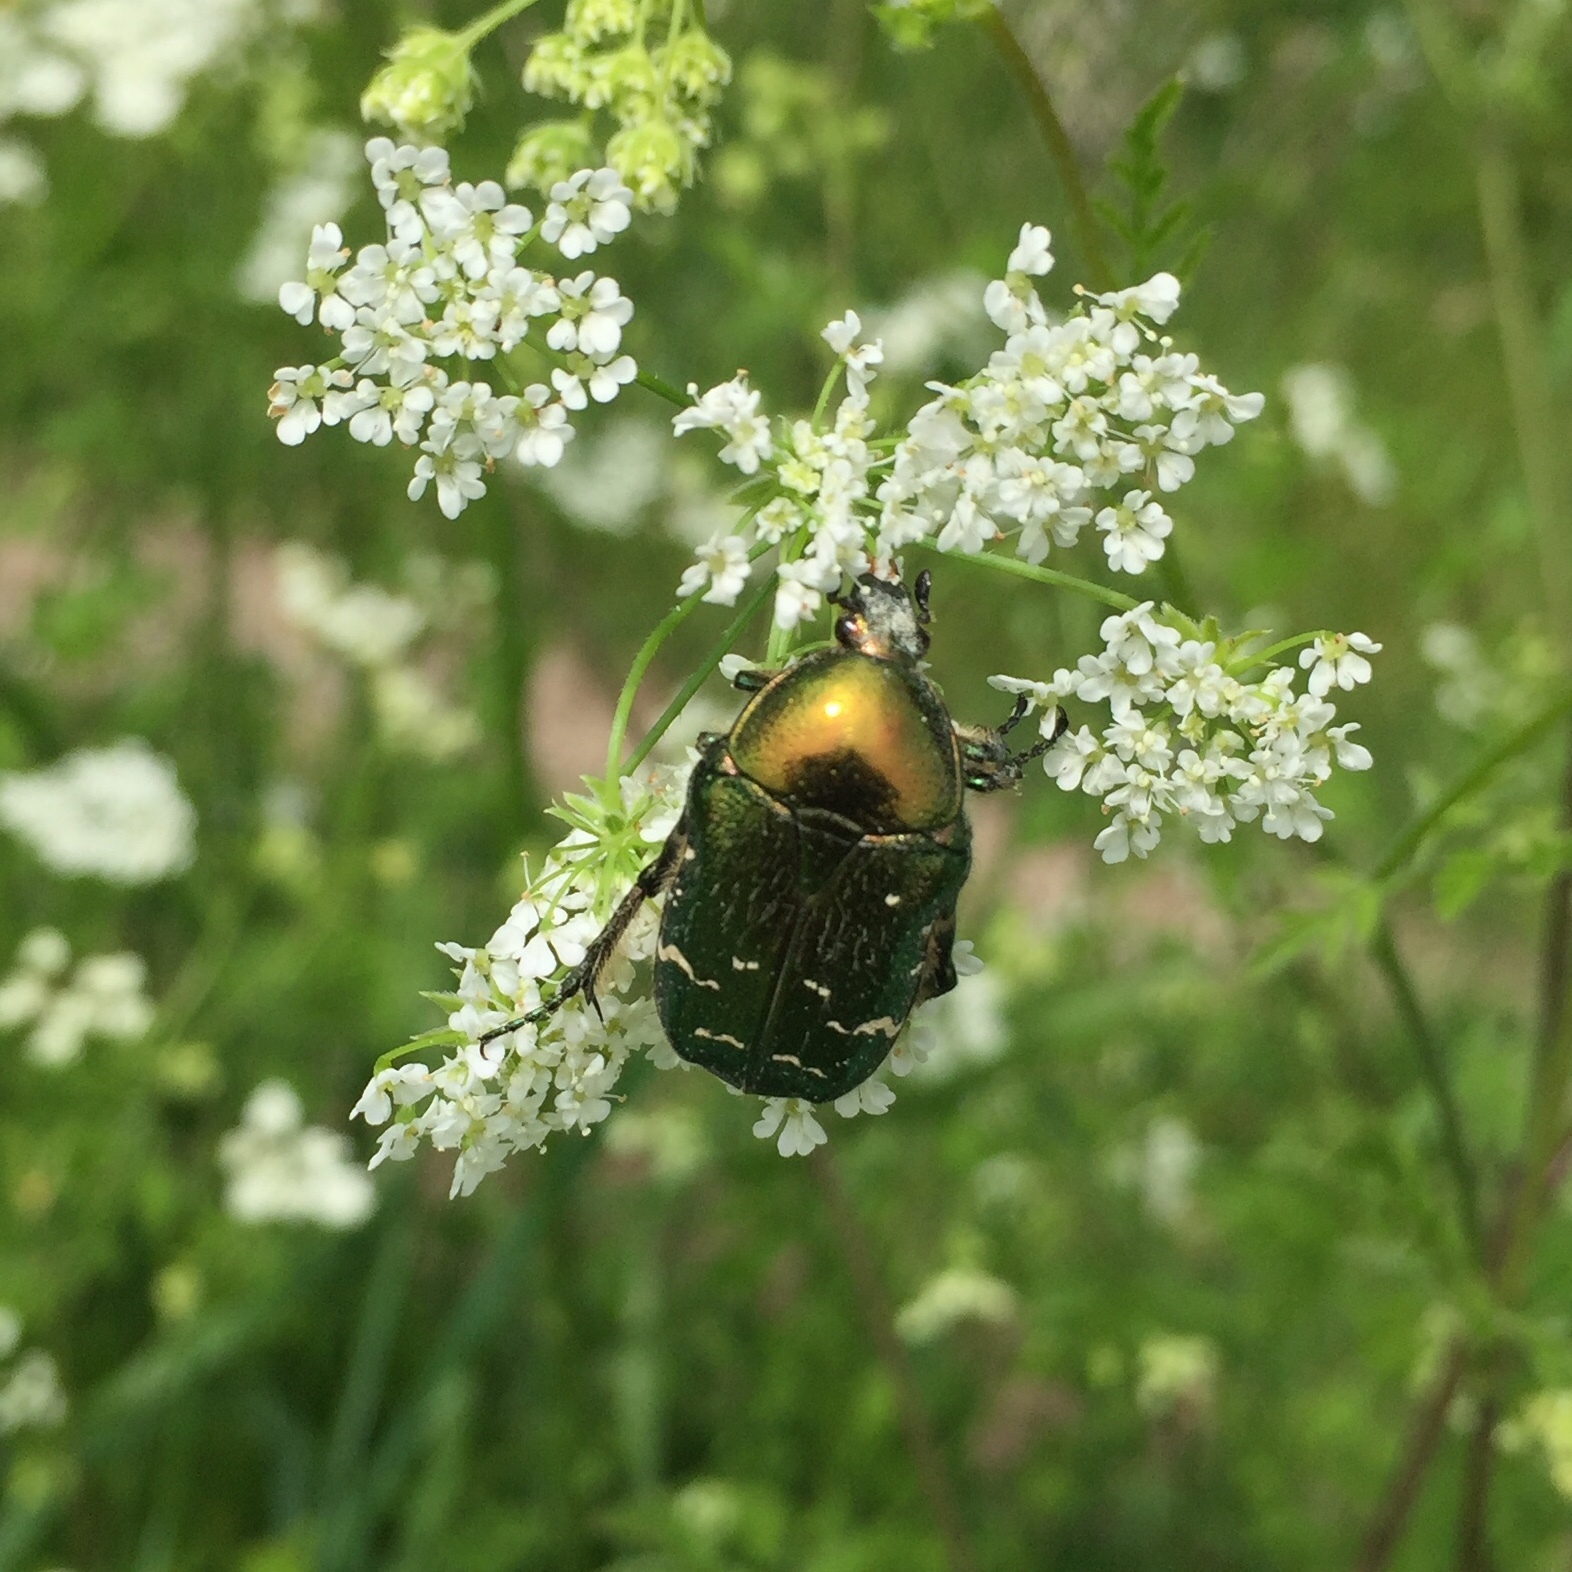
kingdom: Animalia
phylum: Arthropoda
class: Insecta
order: Coleoptera
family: Scarabaeidae
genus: Cetonia
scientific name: Cetonia aurata
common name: Rose chafer
